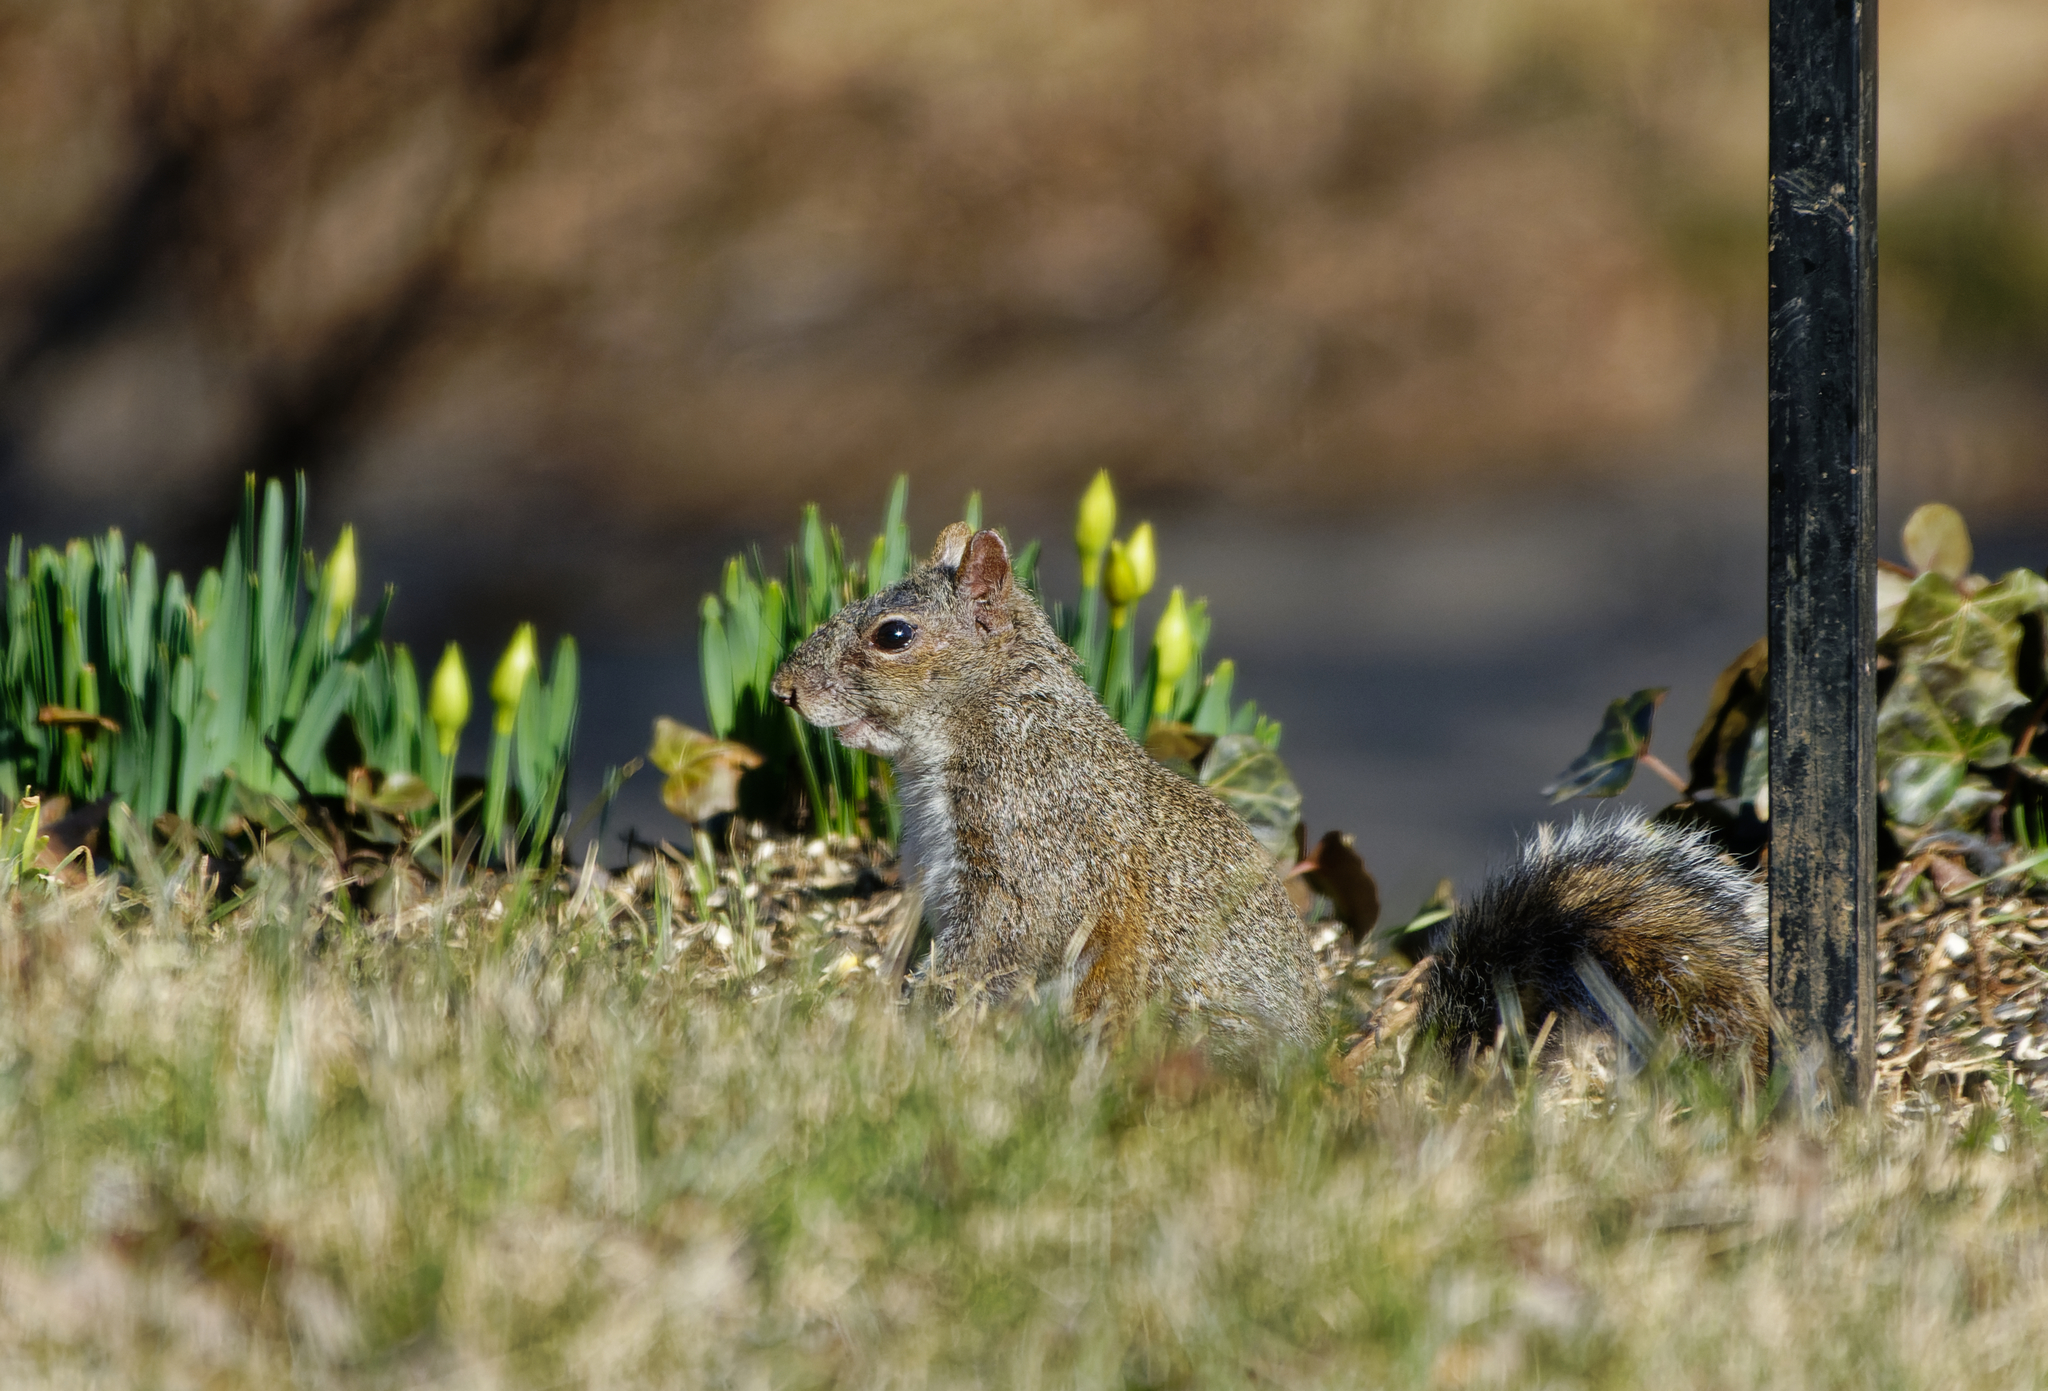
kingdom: Animalia
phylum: Chordata
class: Mammalia
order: Rodentia
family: Sciuridae
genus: Sciurus
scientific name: Sciurus carolinensis
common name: Eastern gray squirrel
